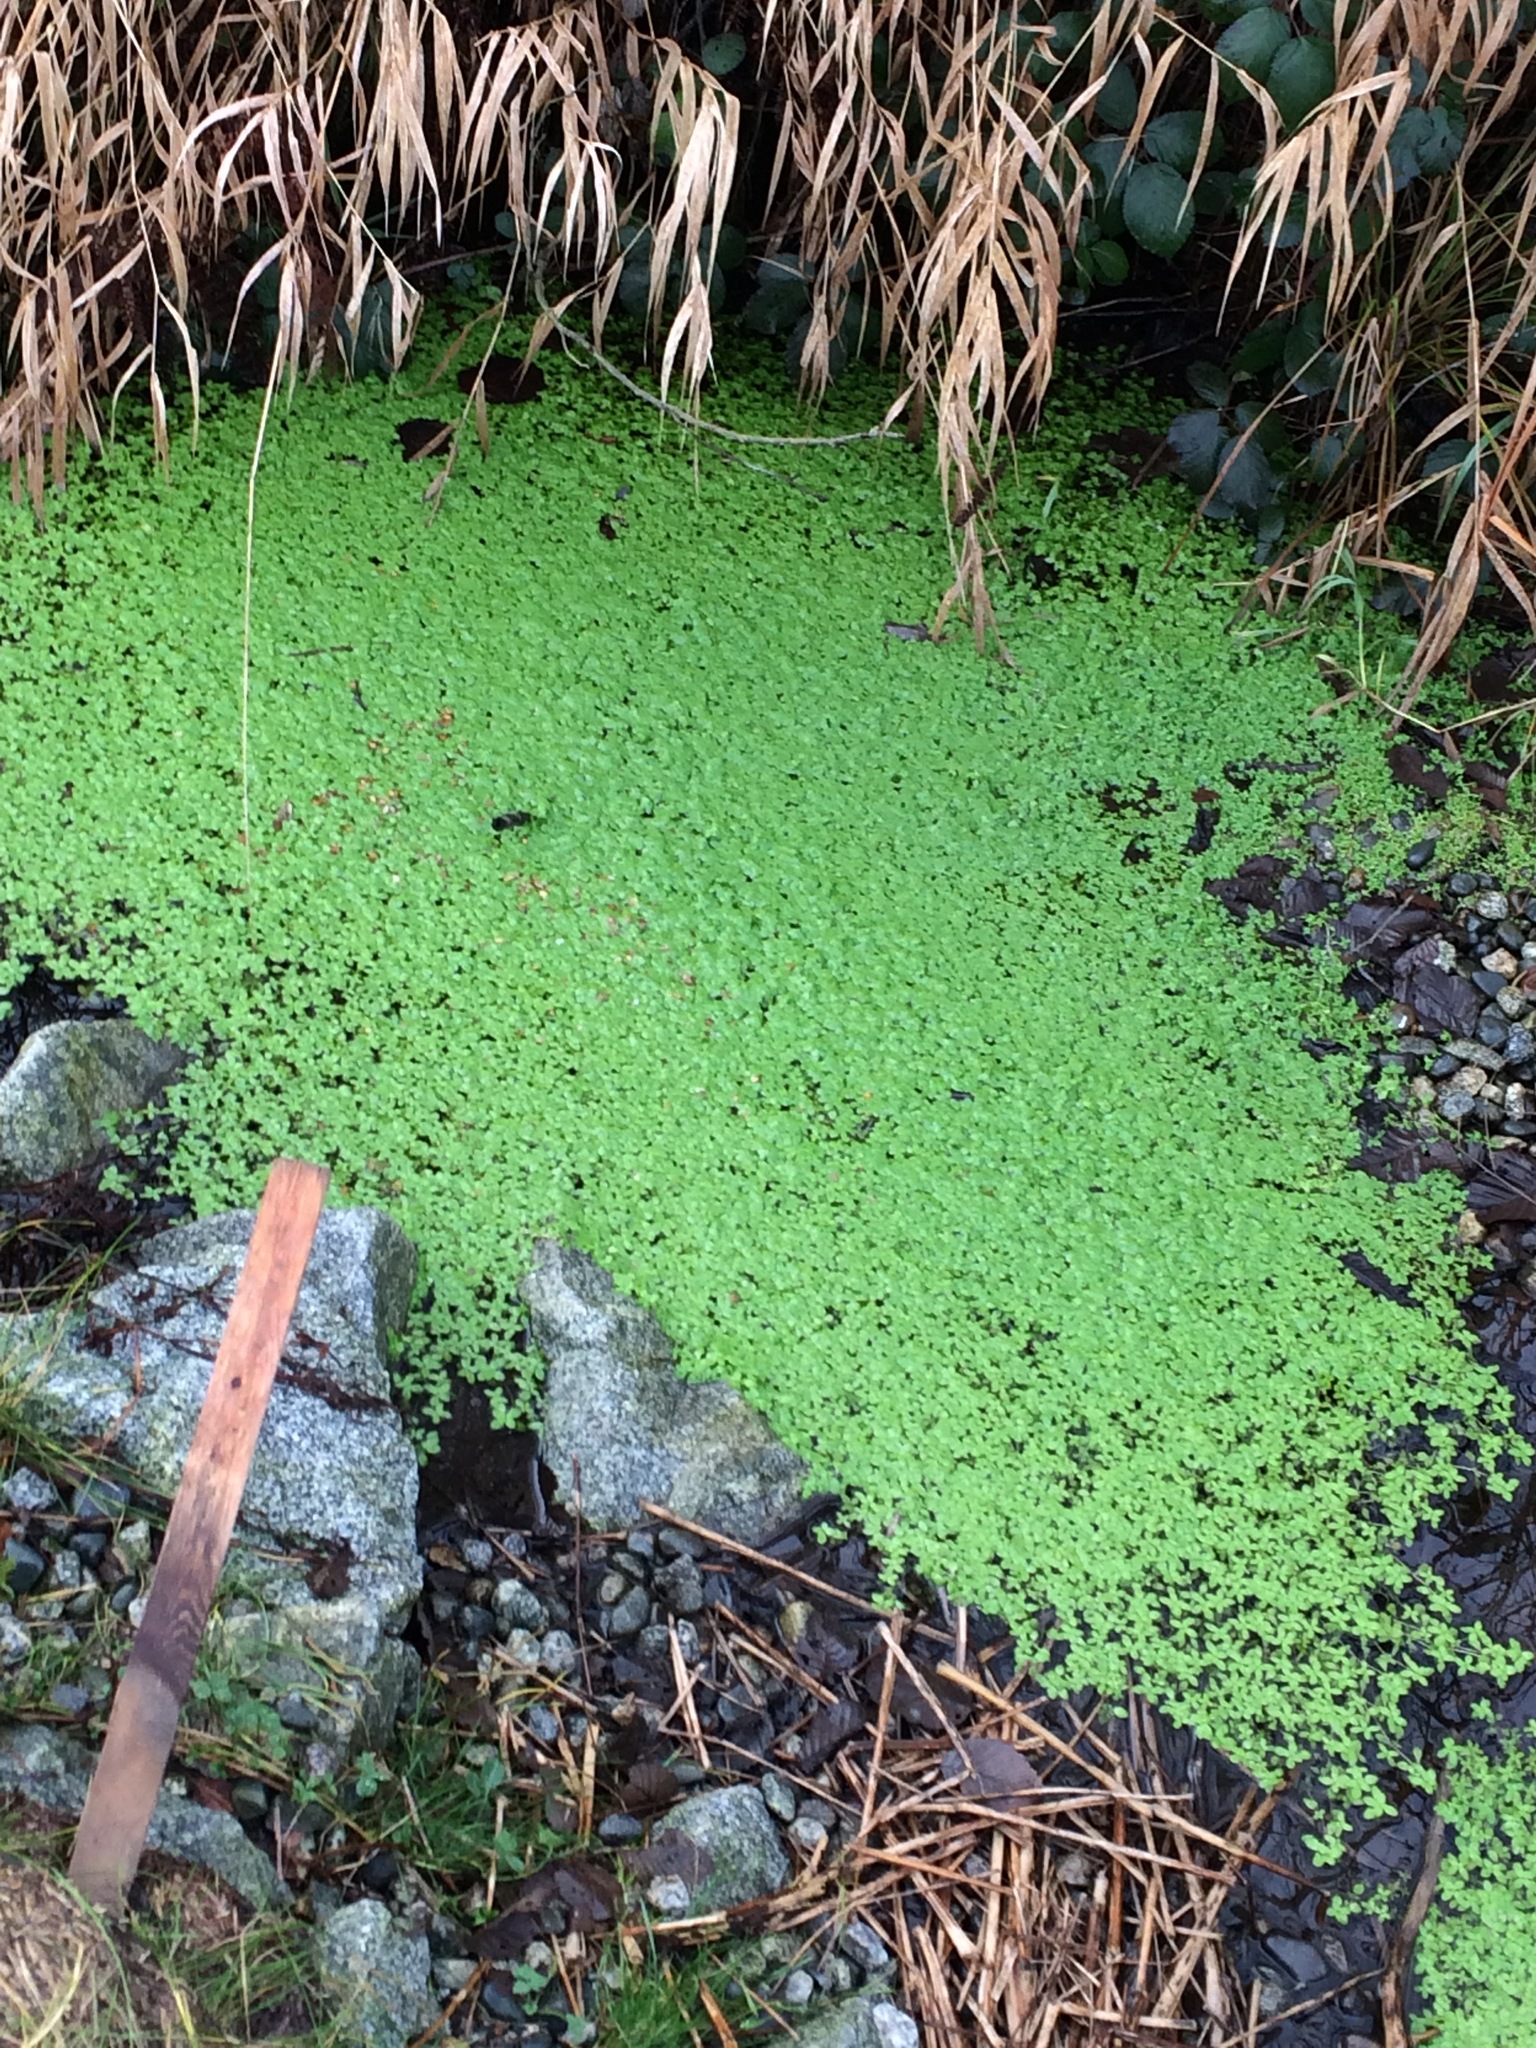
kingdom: Plantae
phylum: Tracheophyta
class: Magnoliopsida
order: Lamiales
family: Plantaginaceae
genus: Callitriche
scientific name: Callitriche stagnalis
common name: Common water-starwort
